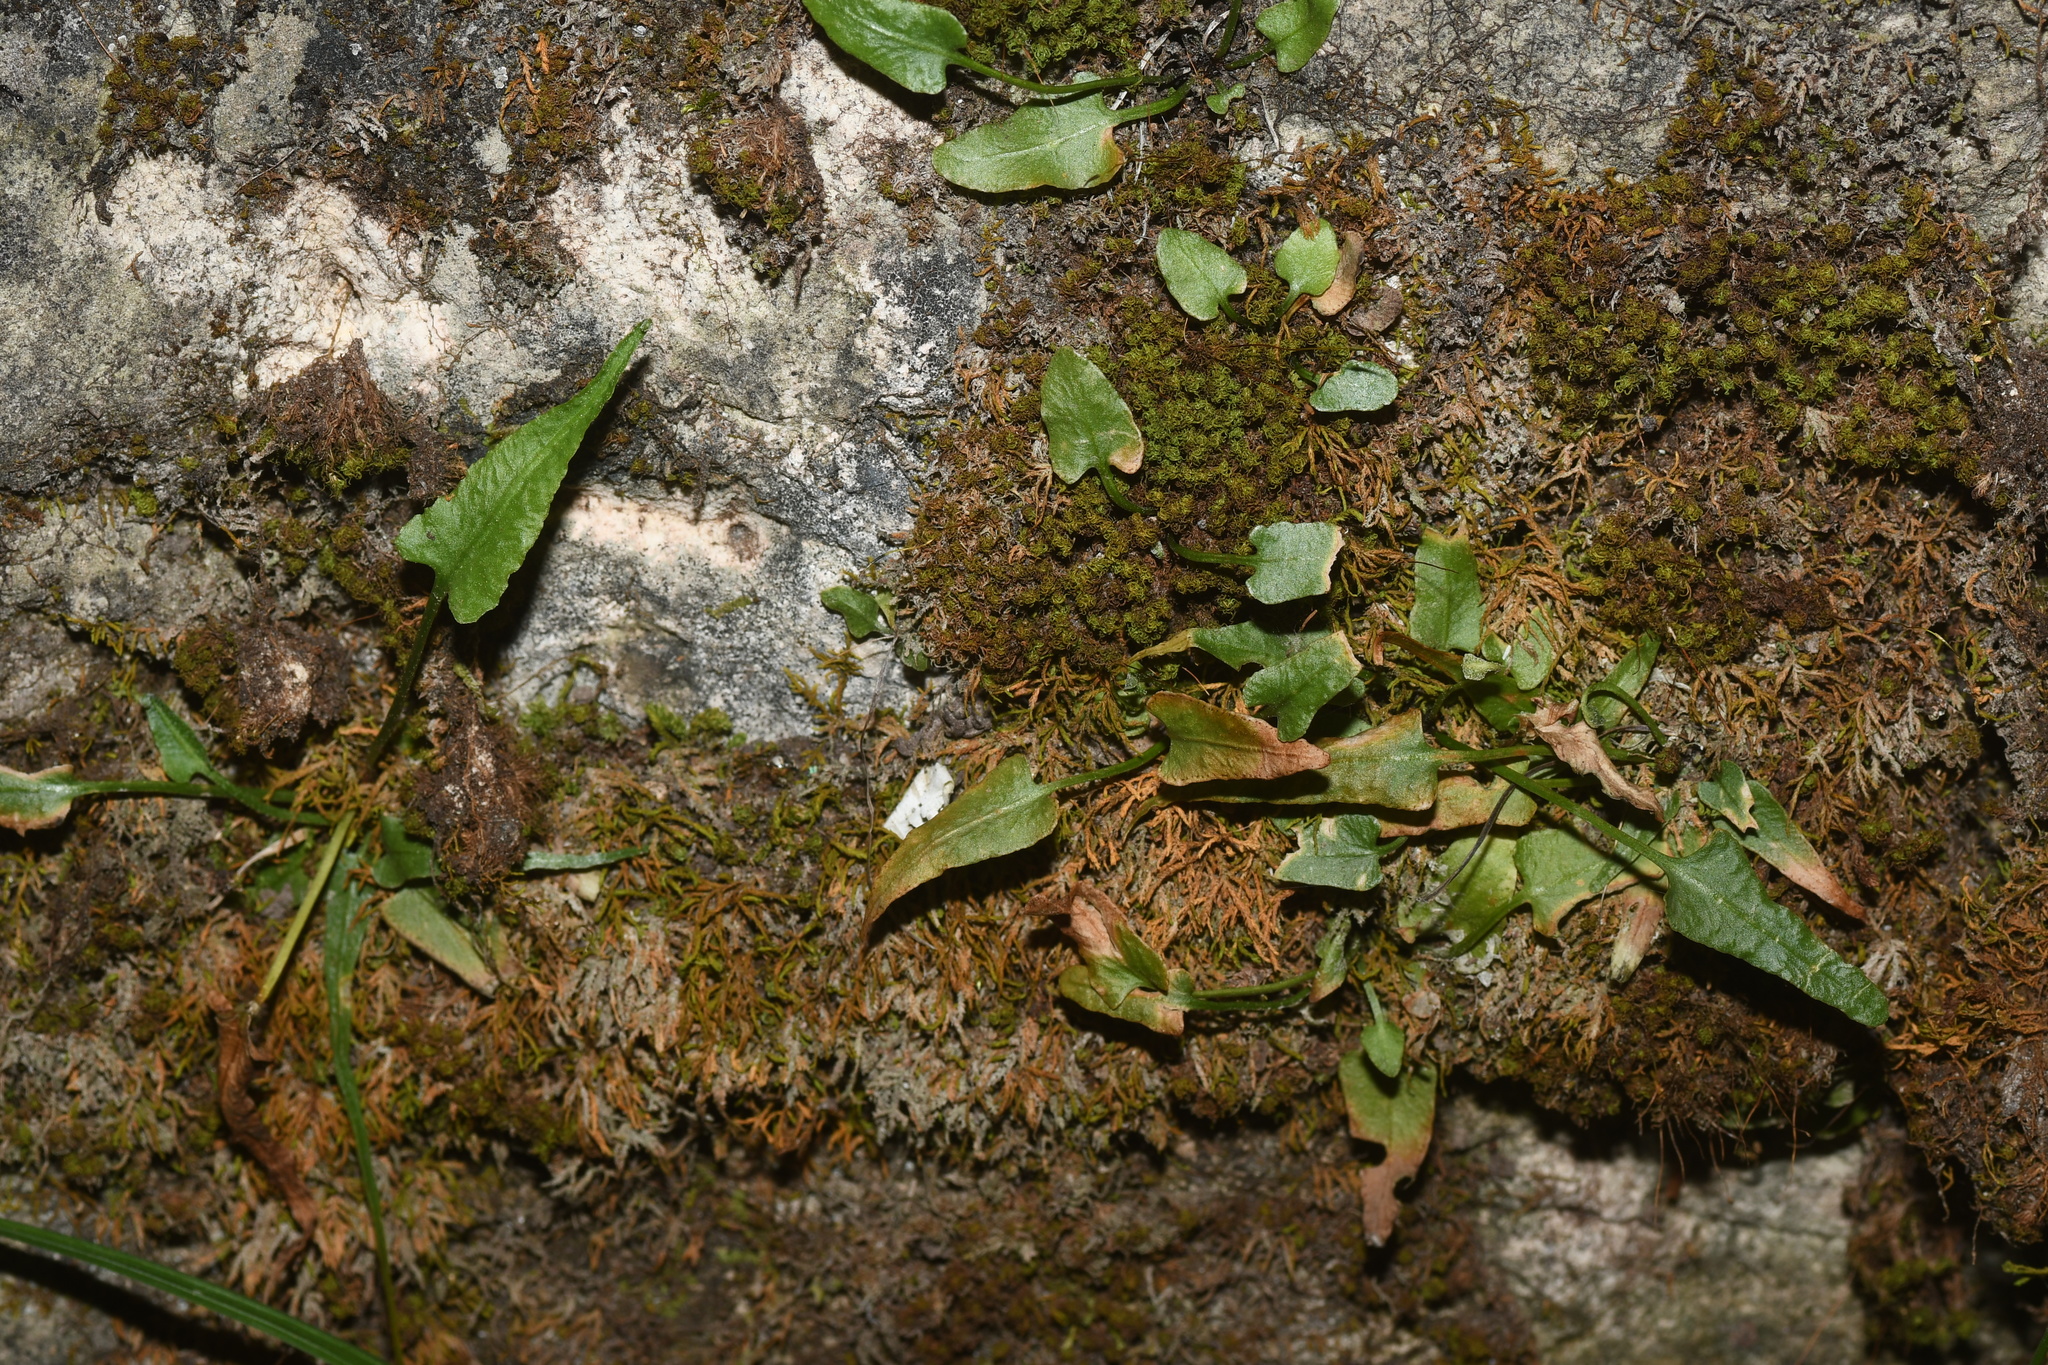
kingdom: Plantae
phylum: Tracheophyta
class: Polypodiopsida
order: Polypodiales
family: Aspleniaceae
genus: Asplenium
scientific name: Asplenium rhizophyllum
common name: Walking fern
